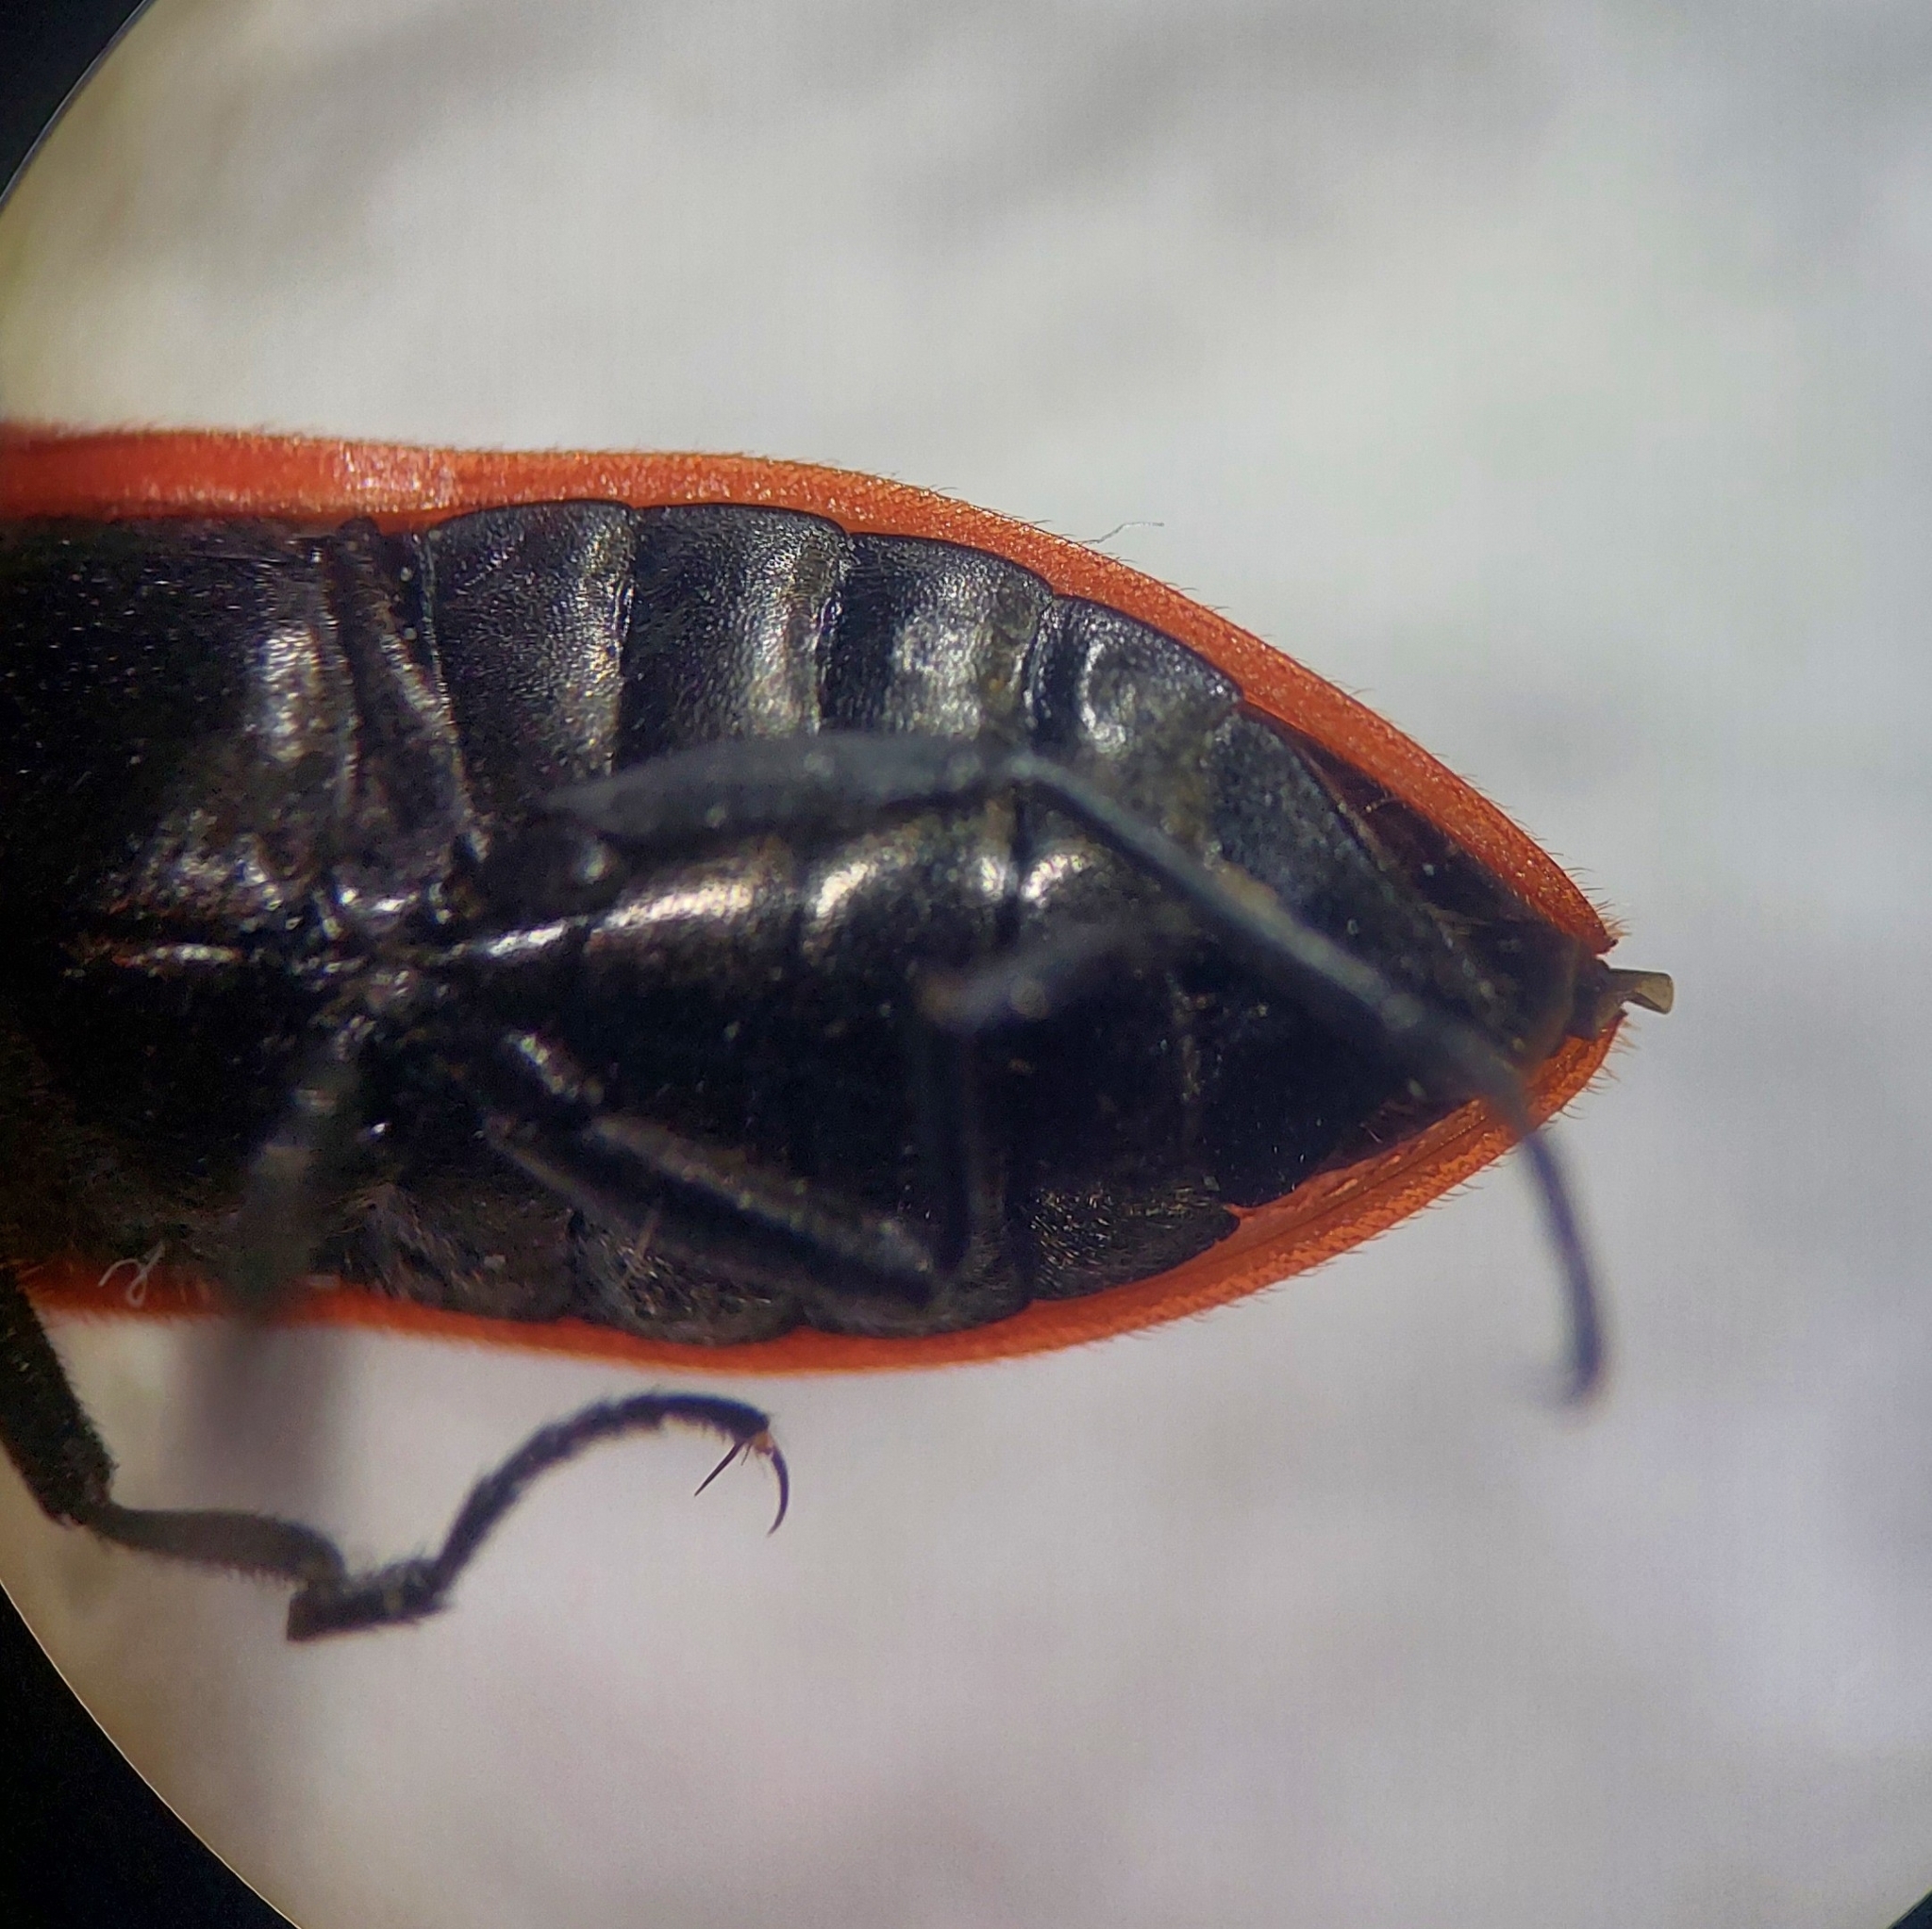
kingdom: Animalia
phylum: Arthropoda
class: Insecta
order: Coleoptera
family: Elateridae
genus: Anostirus
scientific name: Anostirus purpureus
